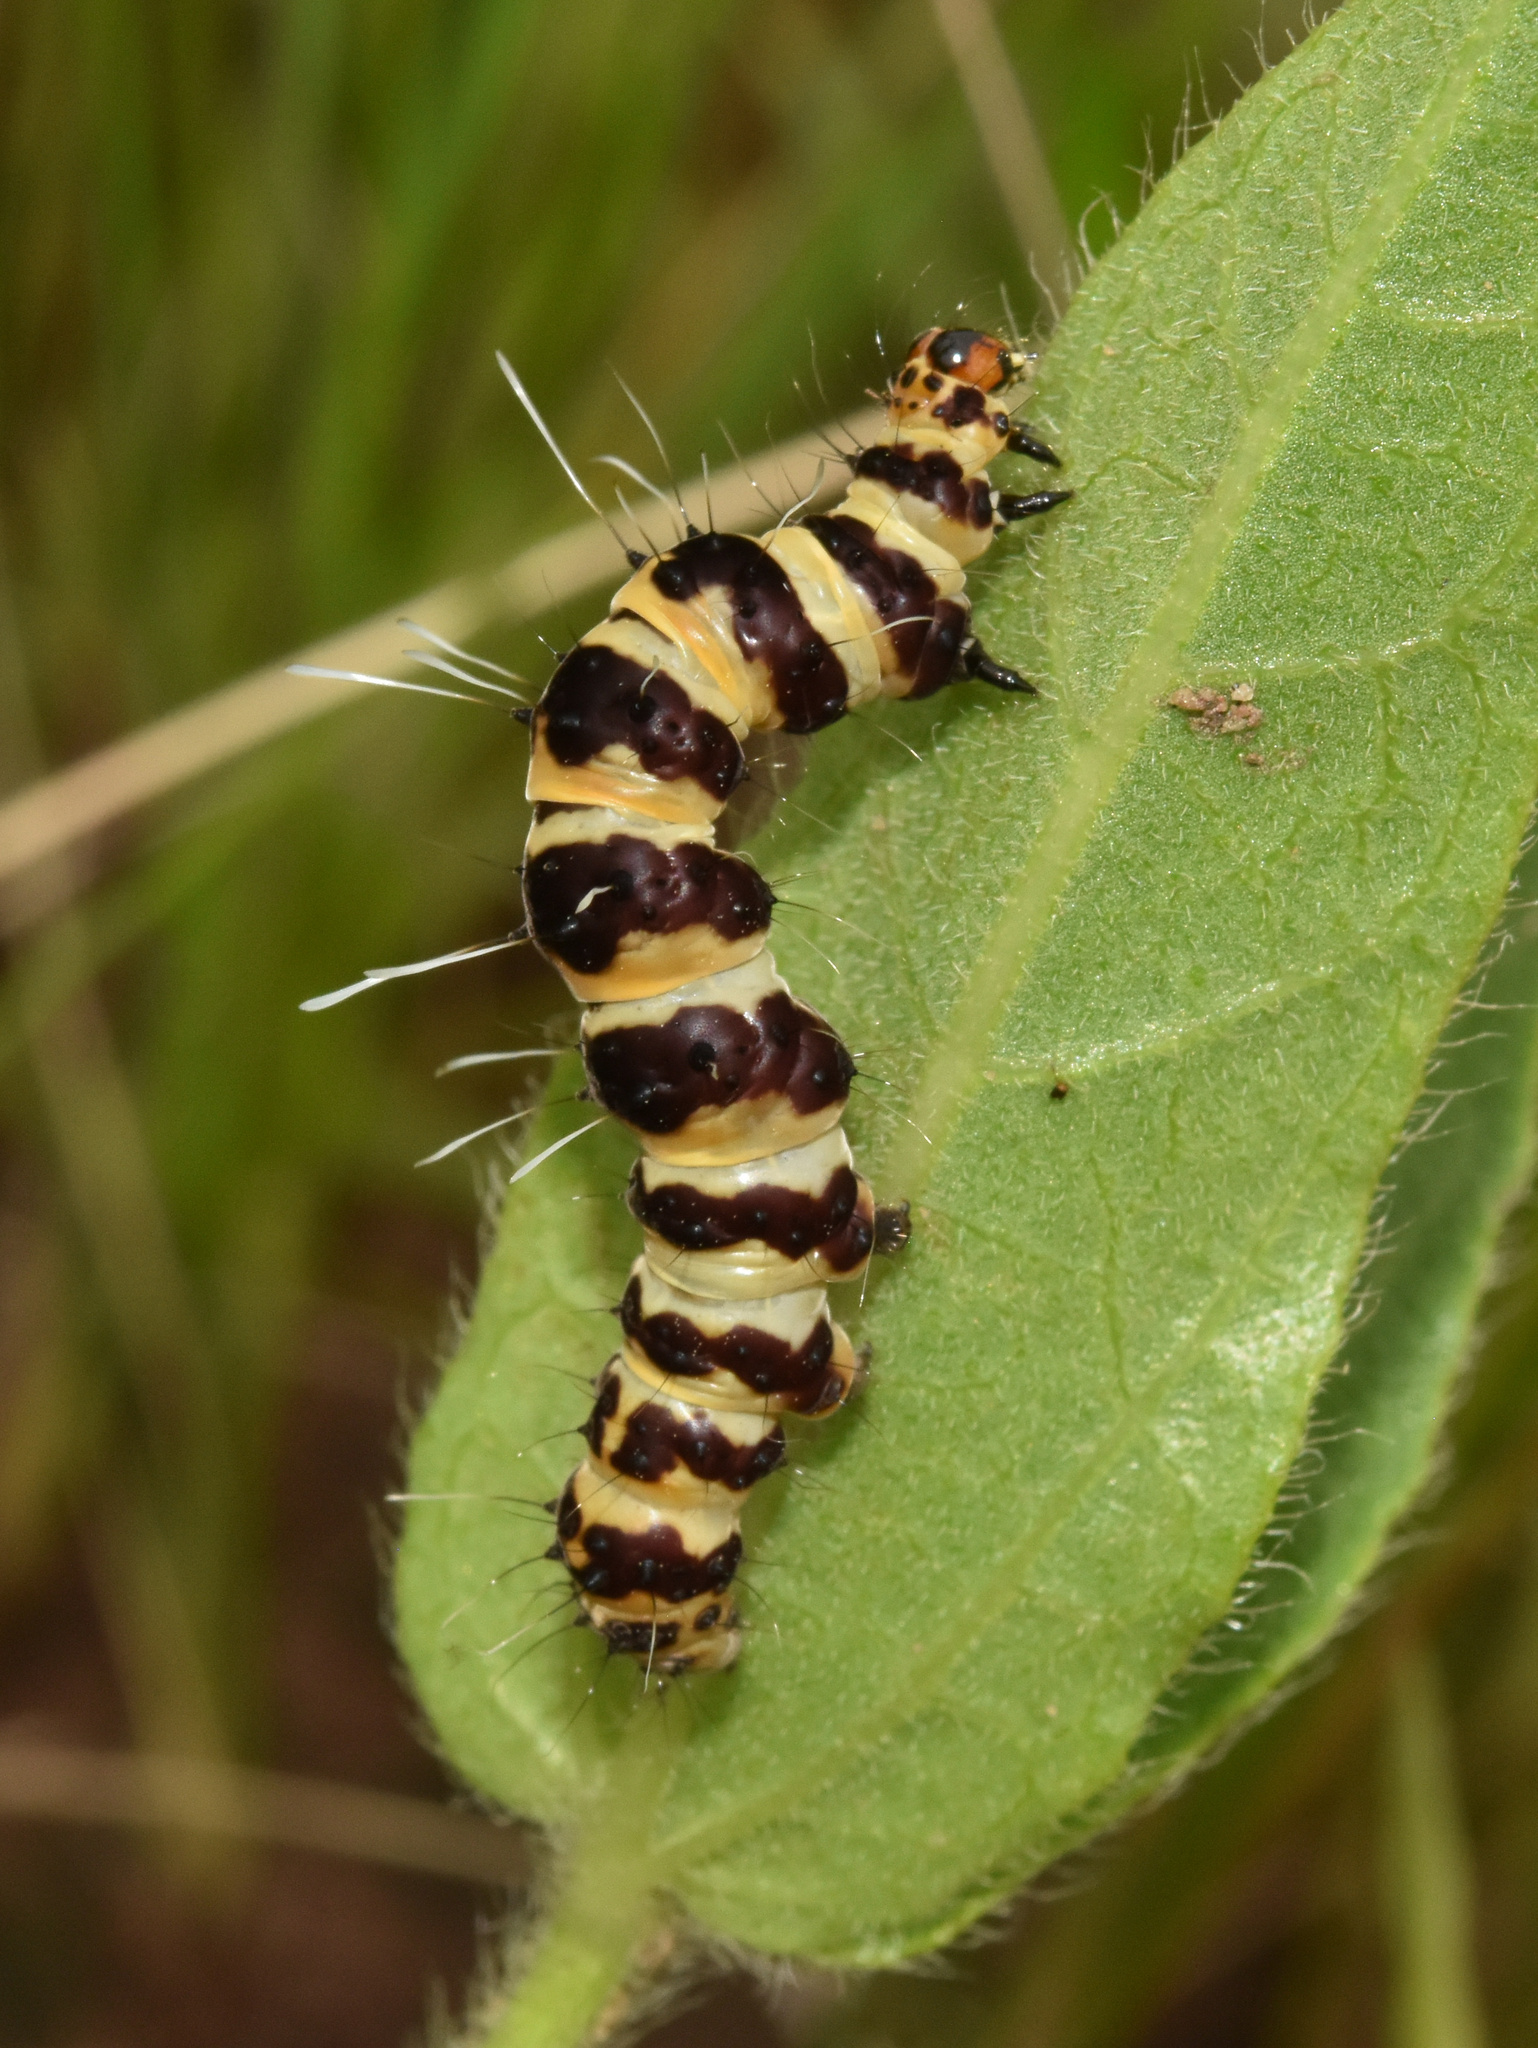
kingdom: Animalia
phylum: Arthropoda
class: Insecta
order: Lepidoptera
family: Erebidae
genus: Rhanidophora
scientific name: Rhanidophora phedonia
